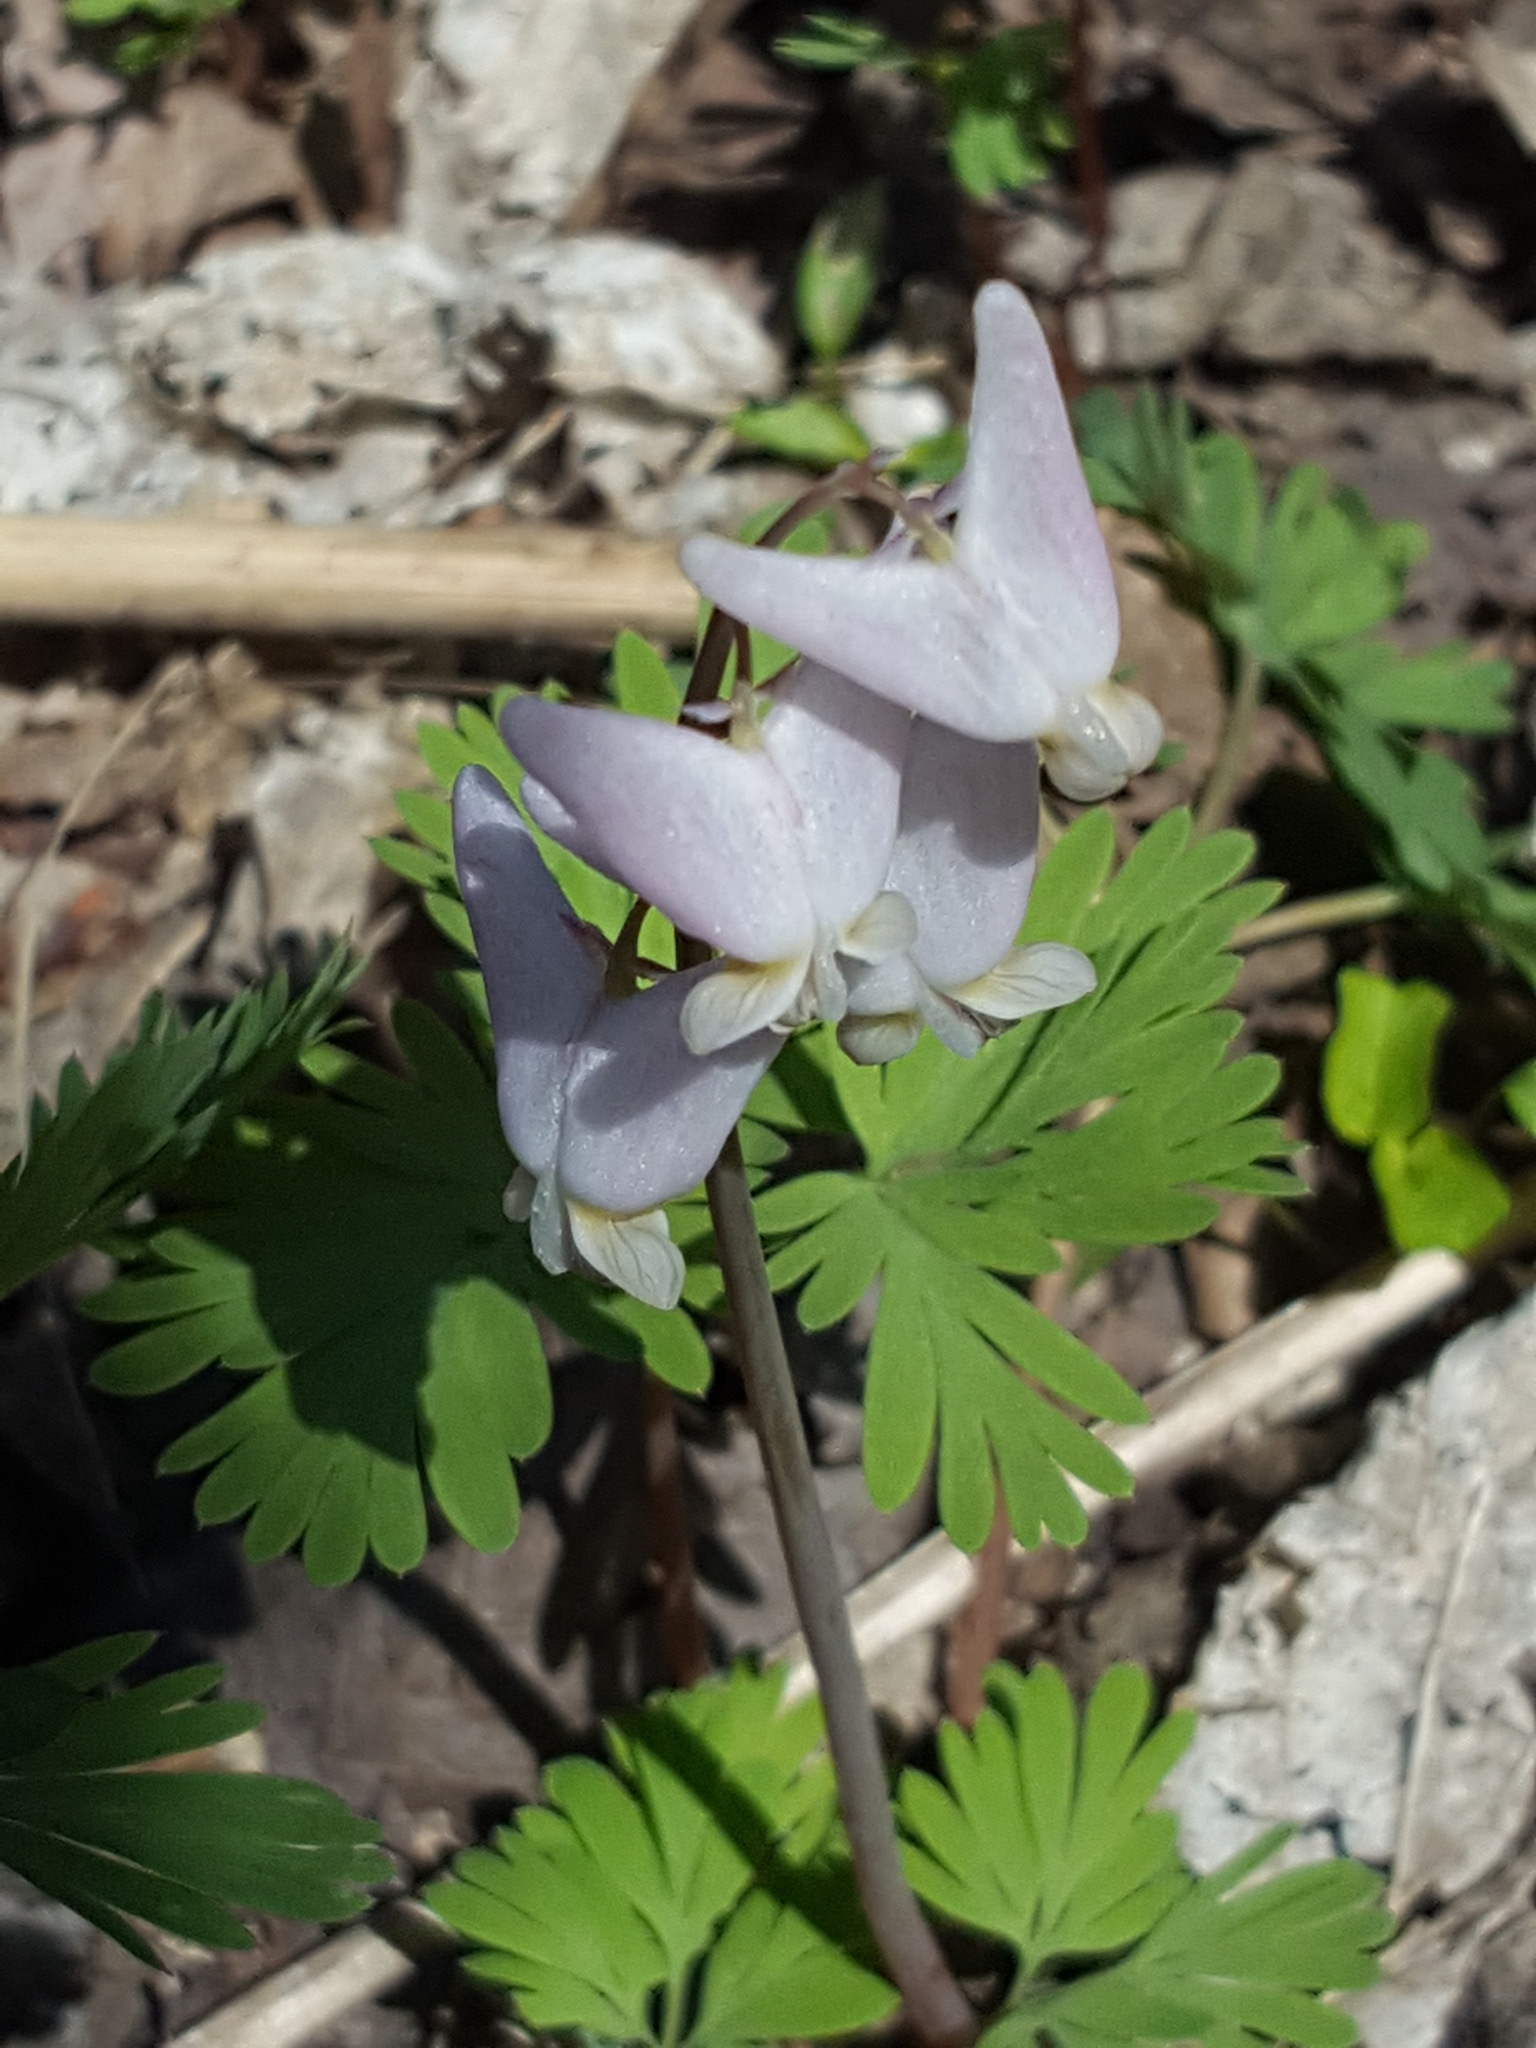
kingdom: Plantae
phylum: Tracheophyta
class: Magnoliopsida
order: Ranunculales
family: Papaveraceae
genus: Dicentra
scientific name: Dicentra cucullaria
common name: Dutchman's breeches
